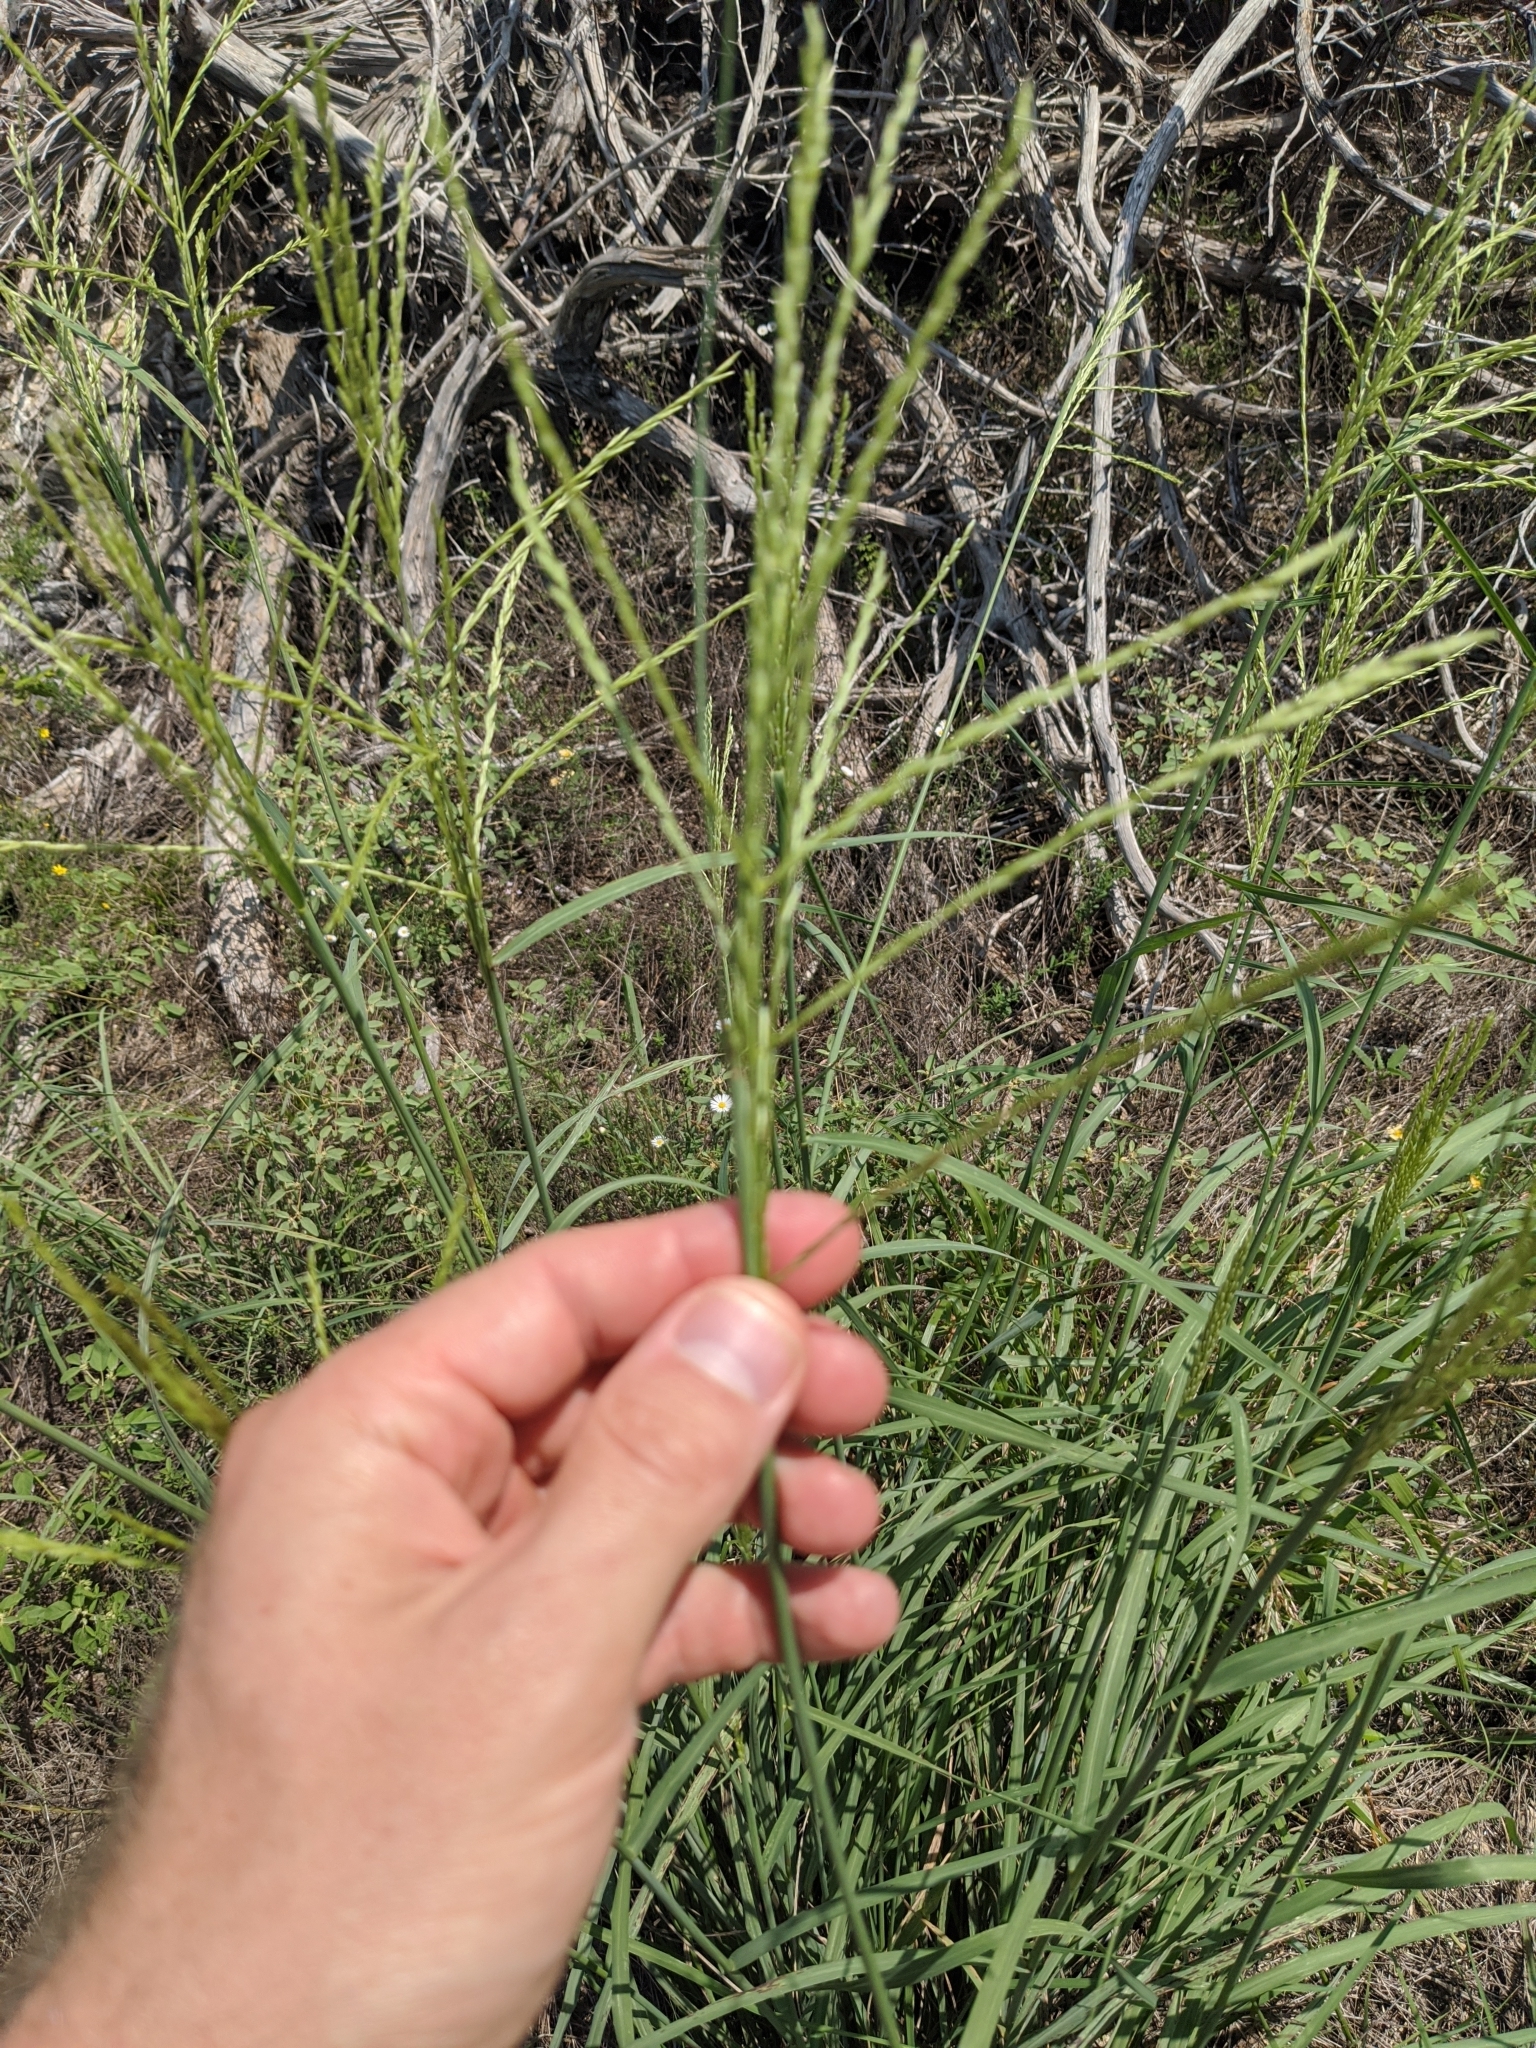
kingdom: Plantae
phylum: Tracheophyta
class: Liliopsida
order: Poales
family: Poaceae
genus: Disakisperma
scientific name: Disakisperma dubium
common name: Green sprangletop
